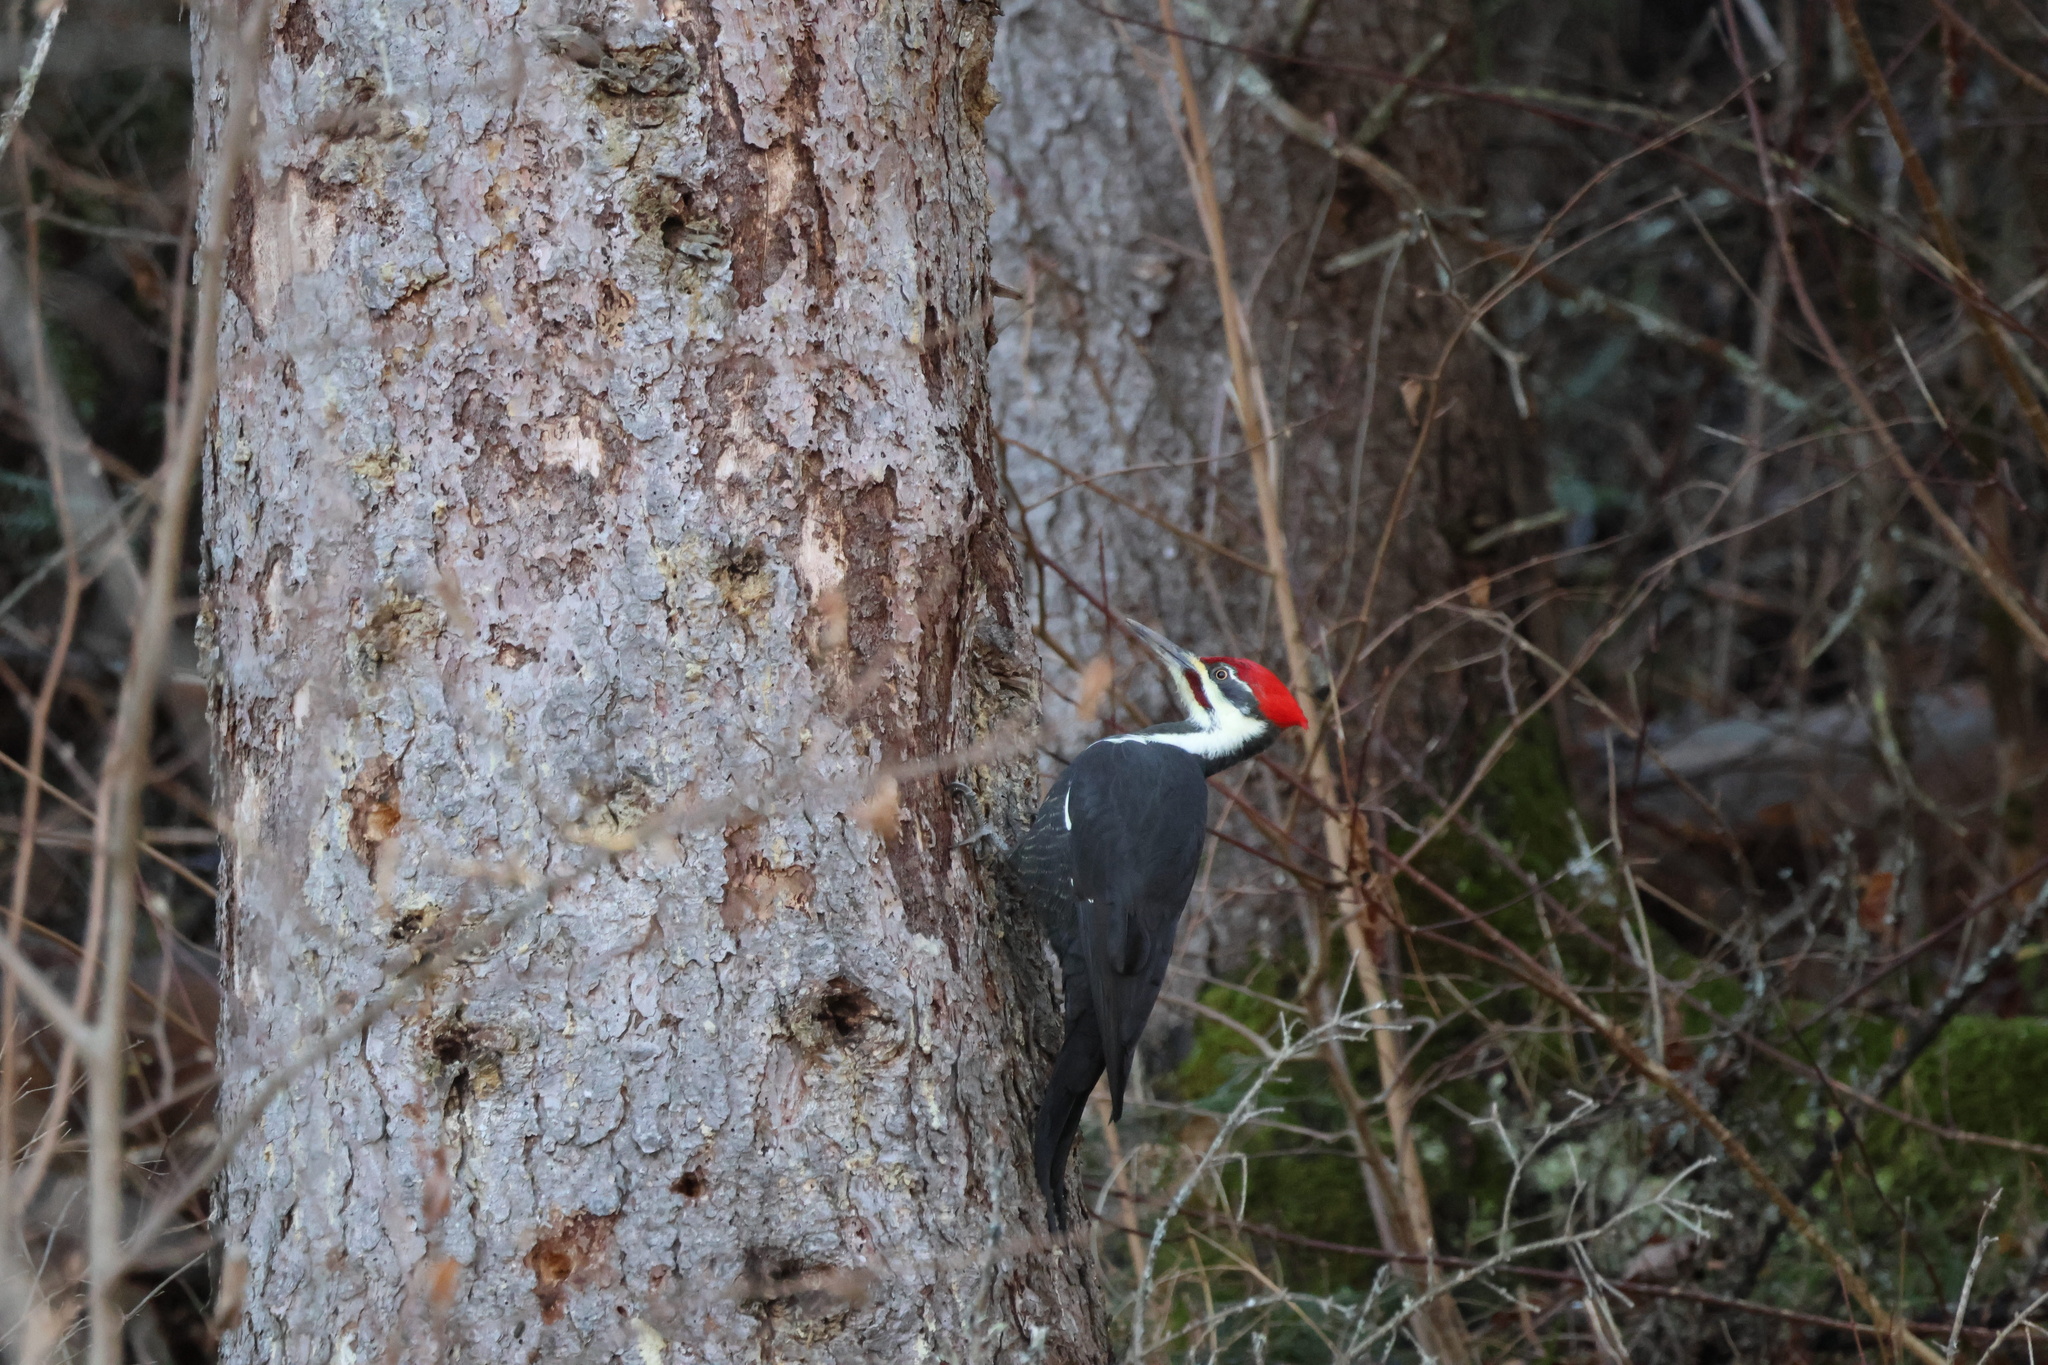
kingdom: Animalia
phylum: Chordata
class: Aves
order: Piciformes
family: Picidae
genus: Dryocopus
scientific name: Dryocopus pileatus
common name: Pileated woodpecker
